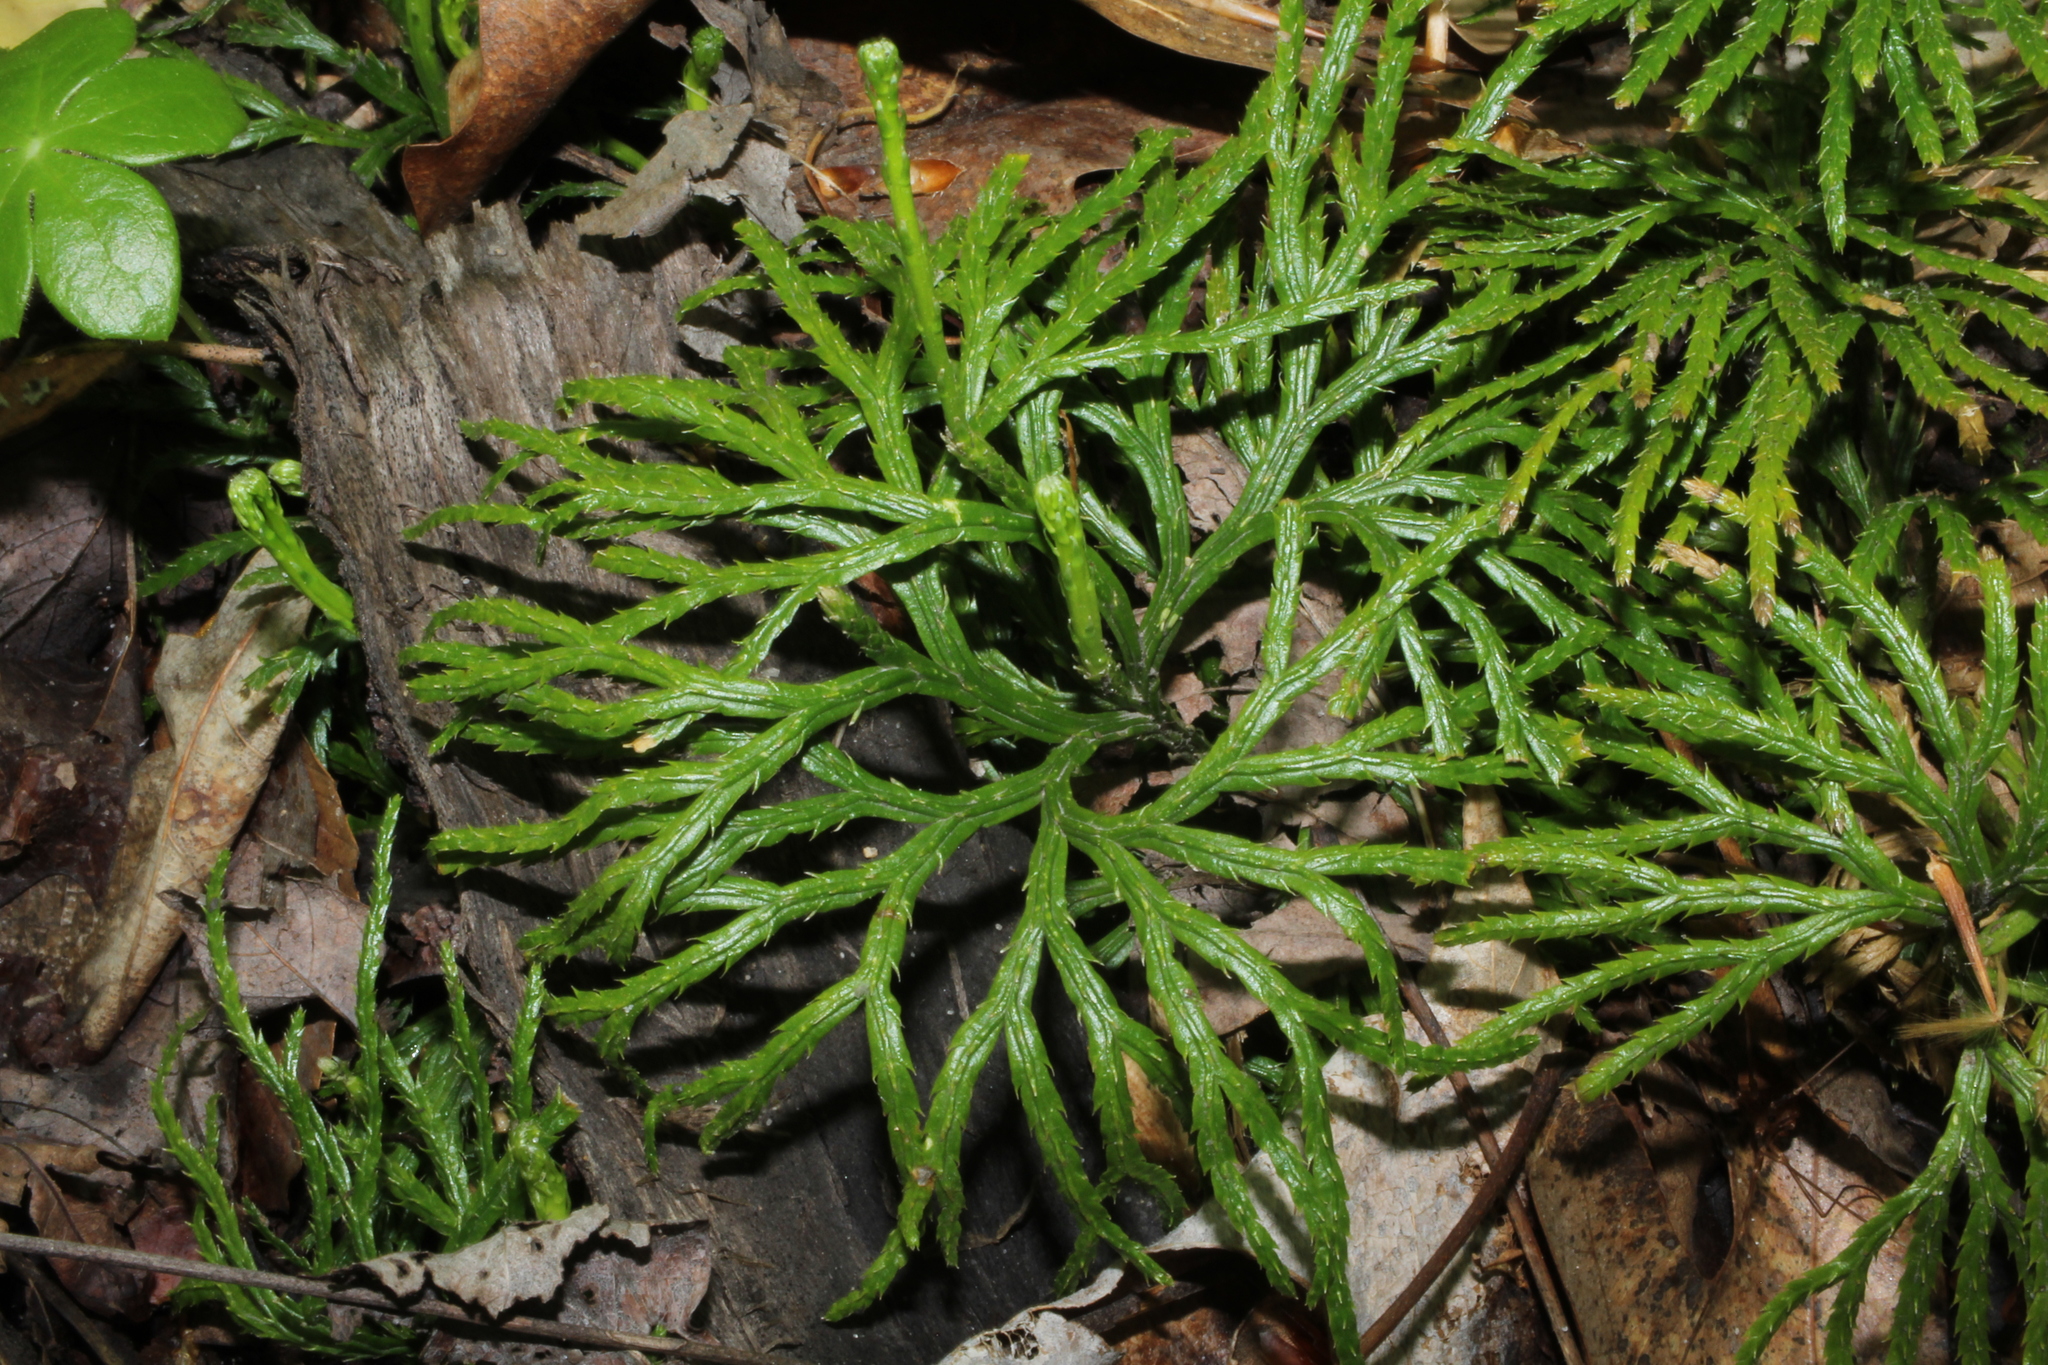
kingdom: Plantae
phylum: Tracheophyta
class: Lycopodiopsida
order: Lycopodiales
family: Lycopodiaceae
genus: Diphasiastrum
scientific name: Diphasiastrum digitatum
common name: Southern running-pine
